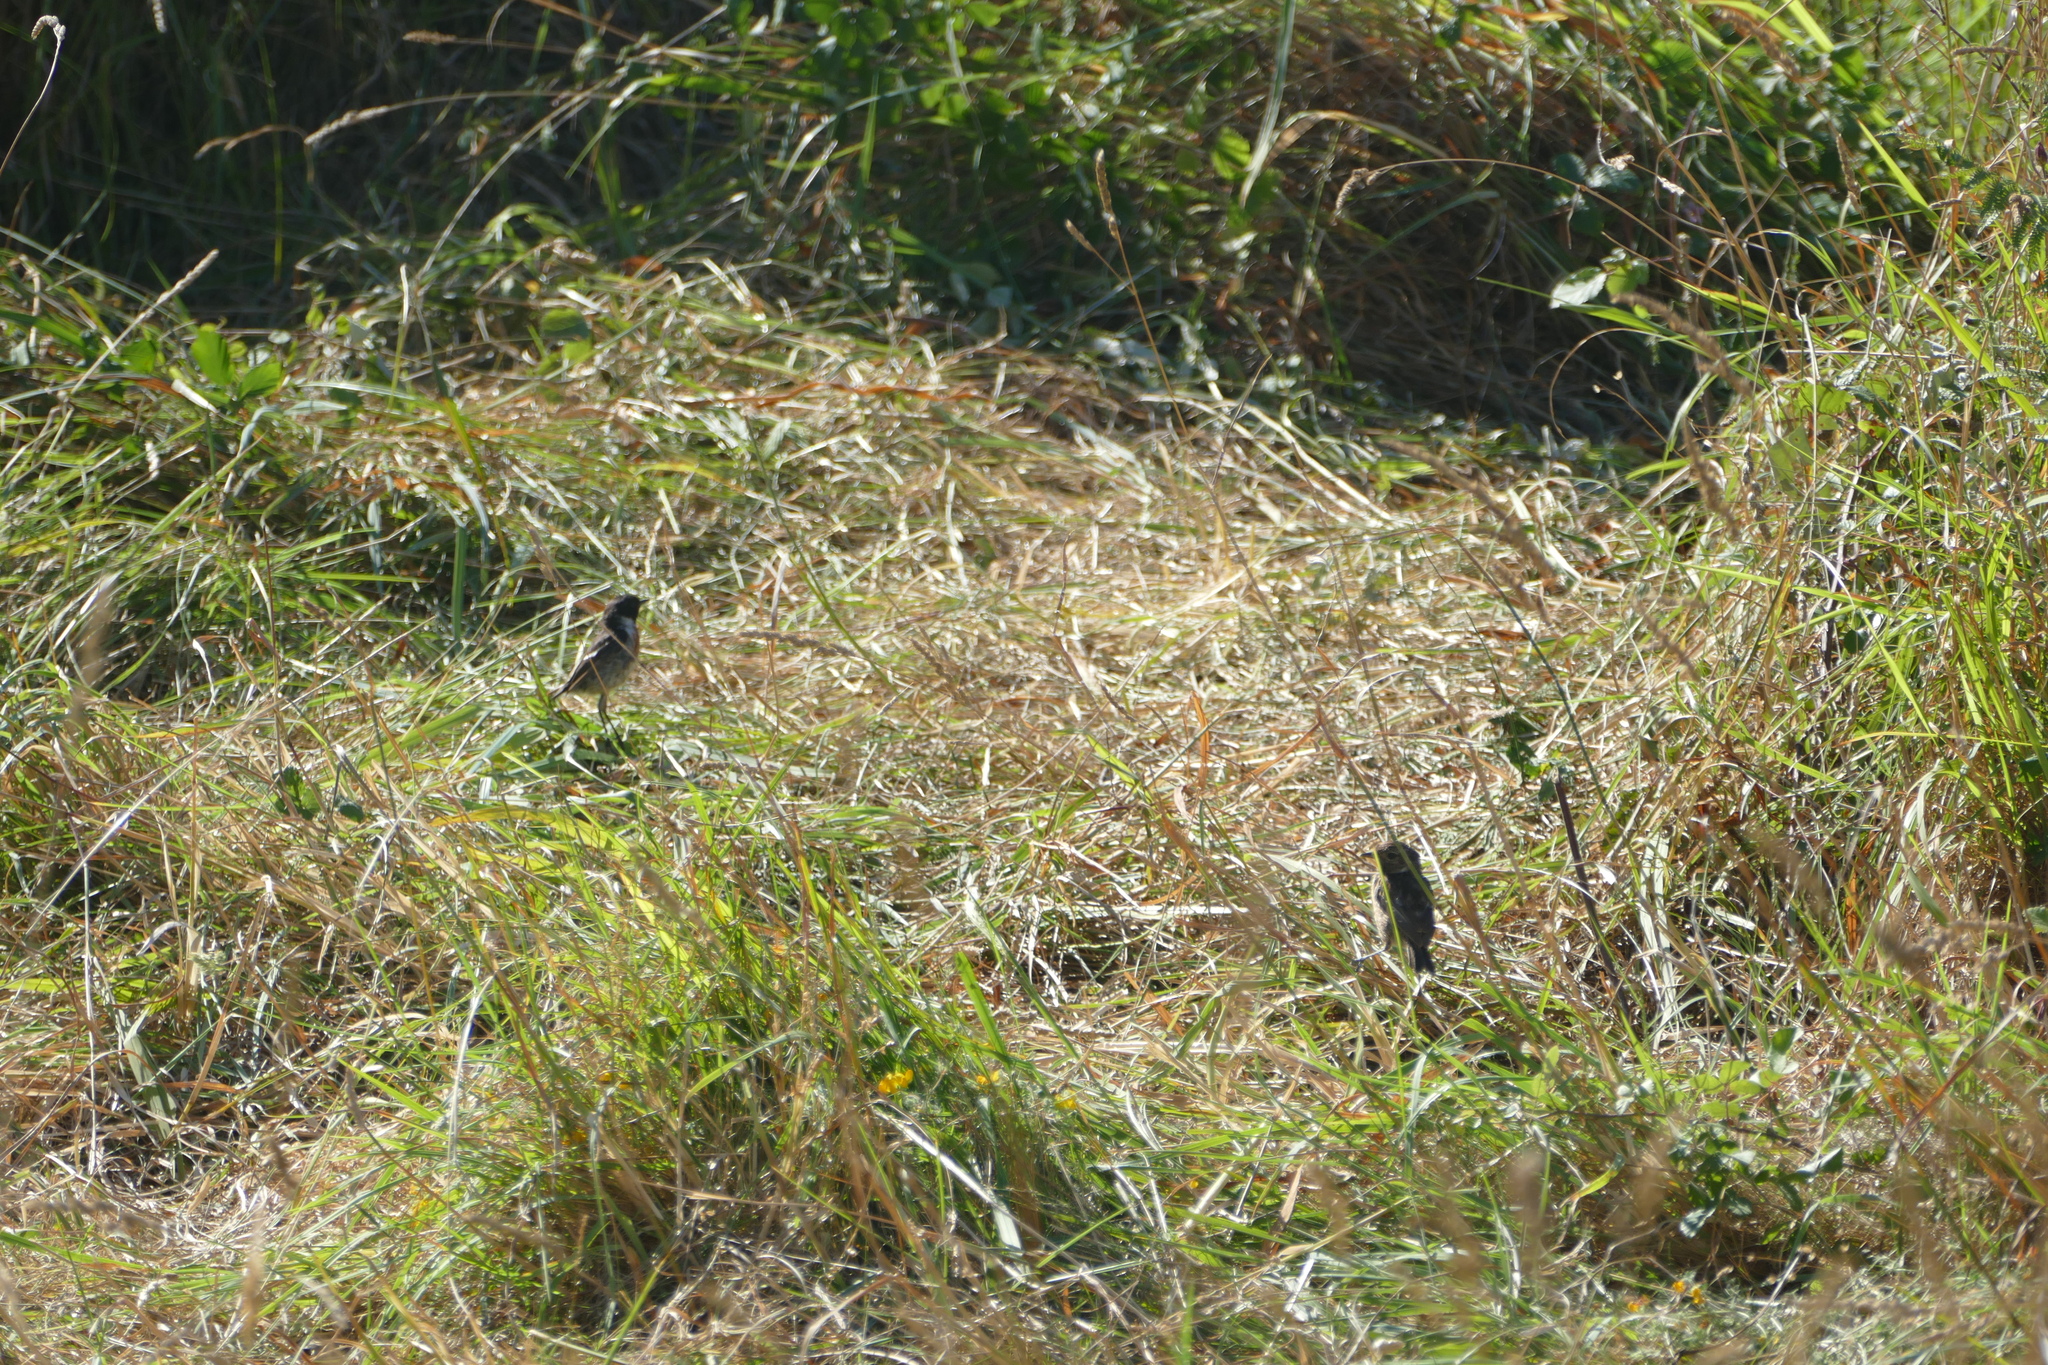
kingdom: Animalia
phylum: Chordata
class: Aves
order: Passeriformes
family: Muscicapidae
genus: Saxicola
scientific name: Saxicola rubicola
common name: European stonechat
